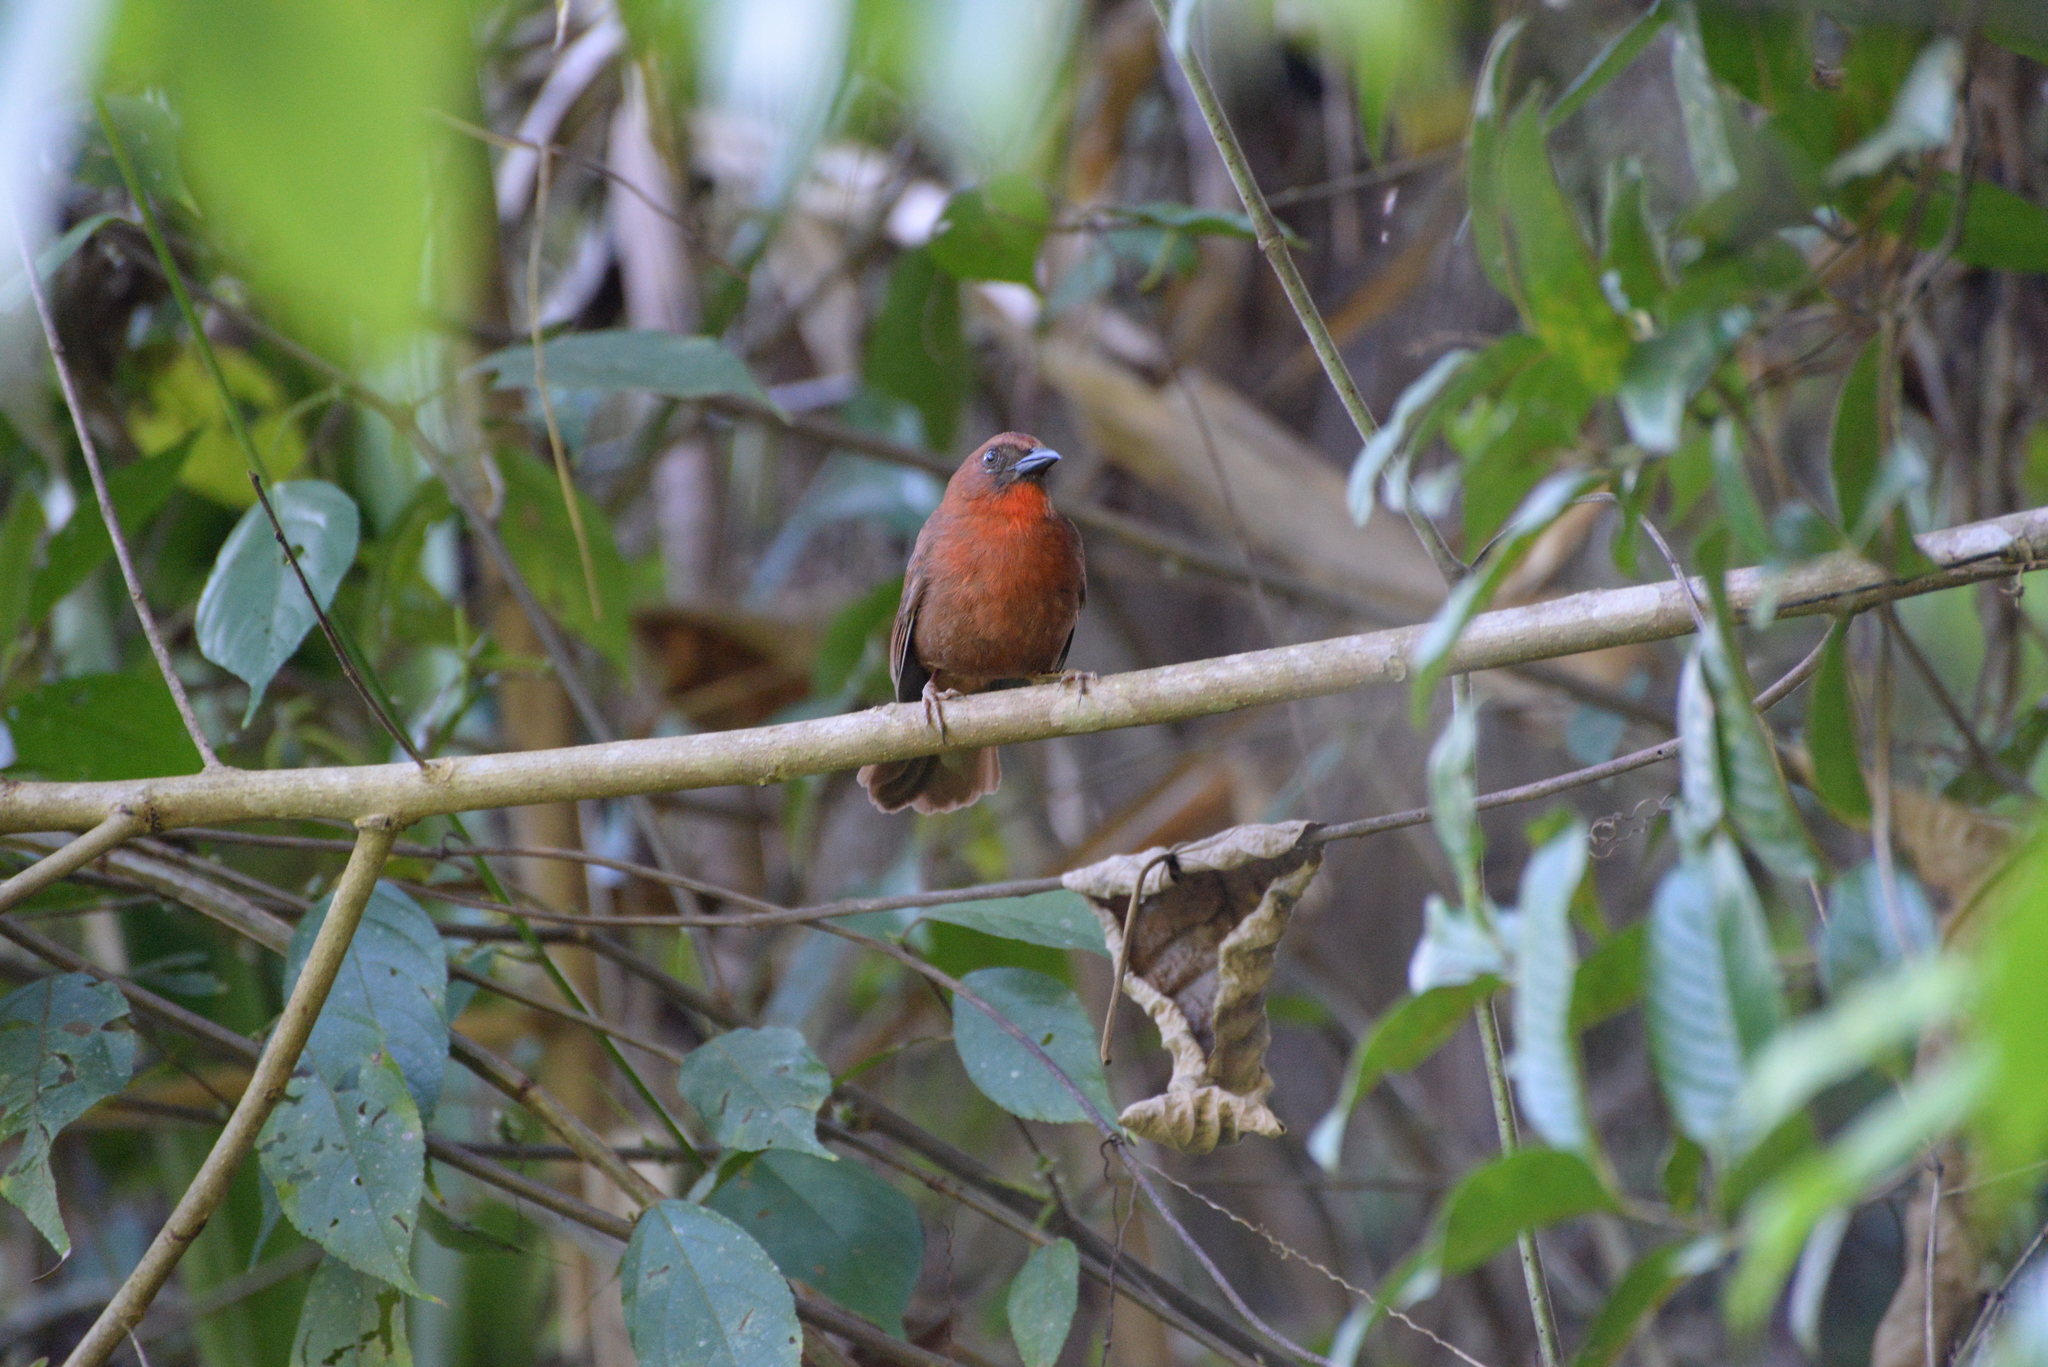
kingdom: Animalia
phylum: Chordata
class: Aves
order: Passeriformes
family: Cardinalidae
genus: Habia
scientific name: Habia fuscicauda
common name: Red-throated ant-tanager
